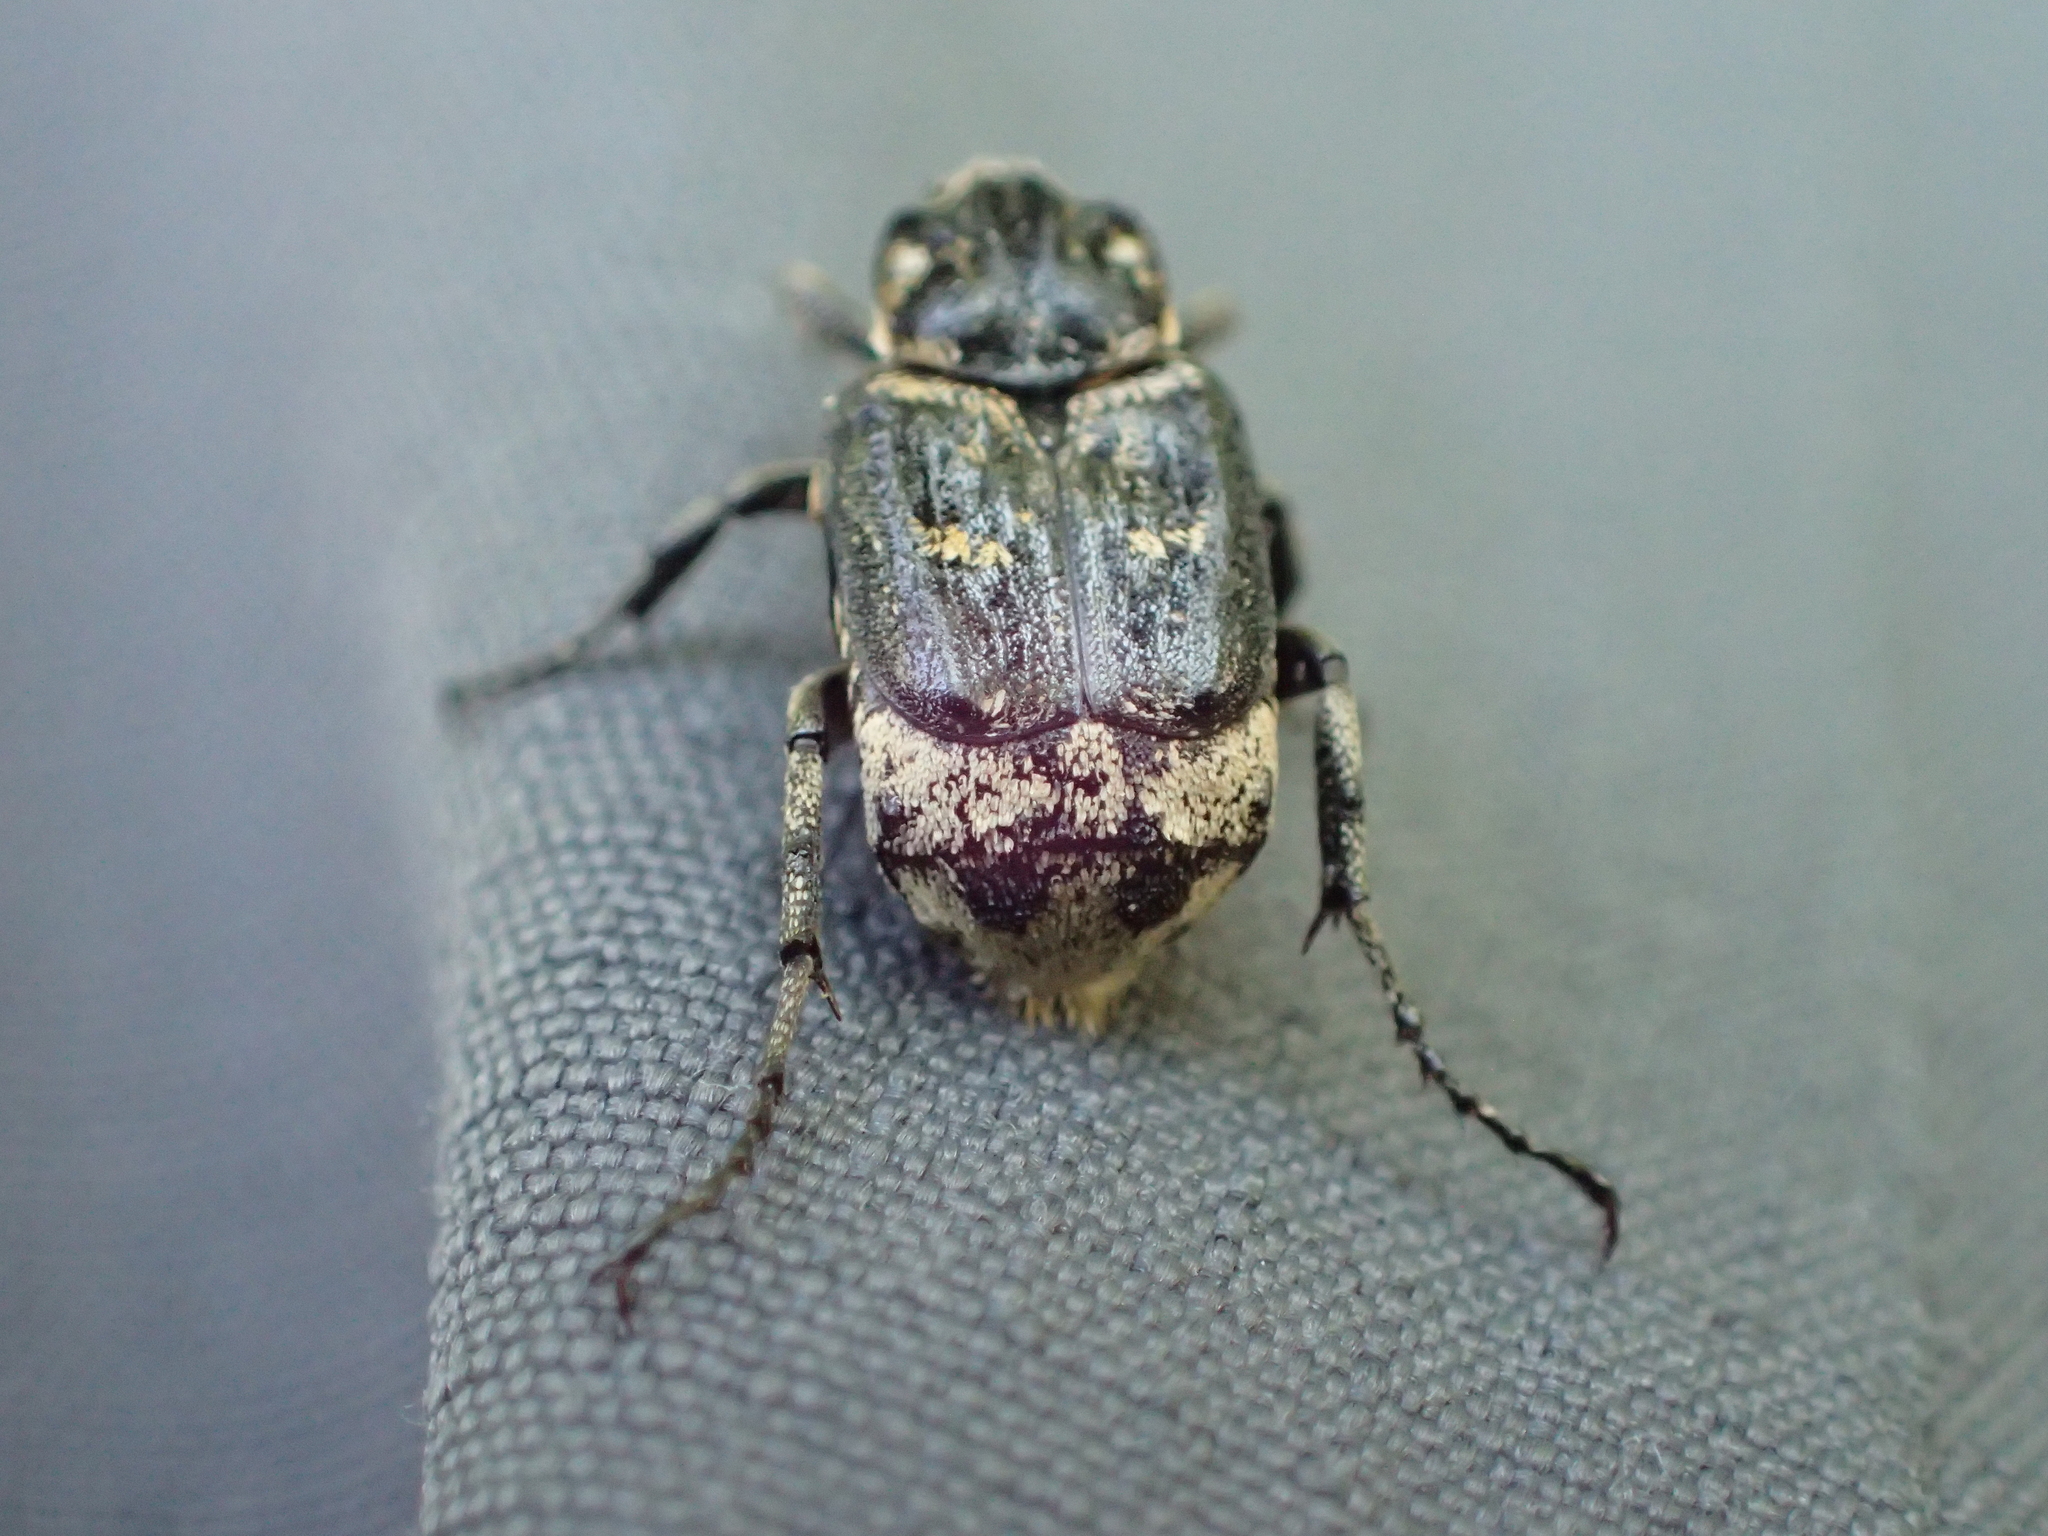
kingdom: Animalia
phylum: Arthropoda
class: Insecta
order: Coleoptera
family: Scarabaeidae
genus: Valgus
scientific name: Valgus hemipterus
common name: Bug flower chafer
